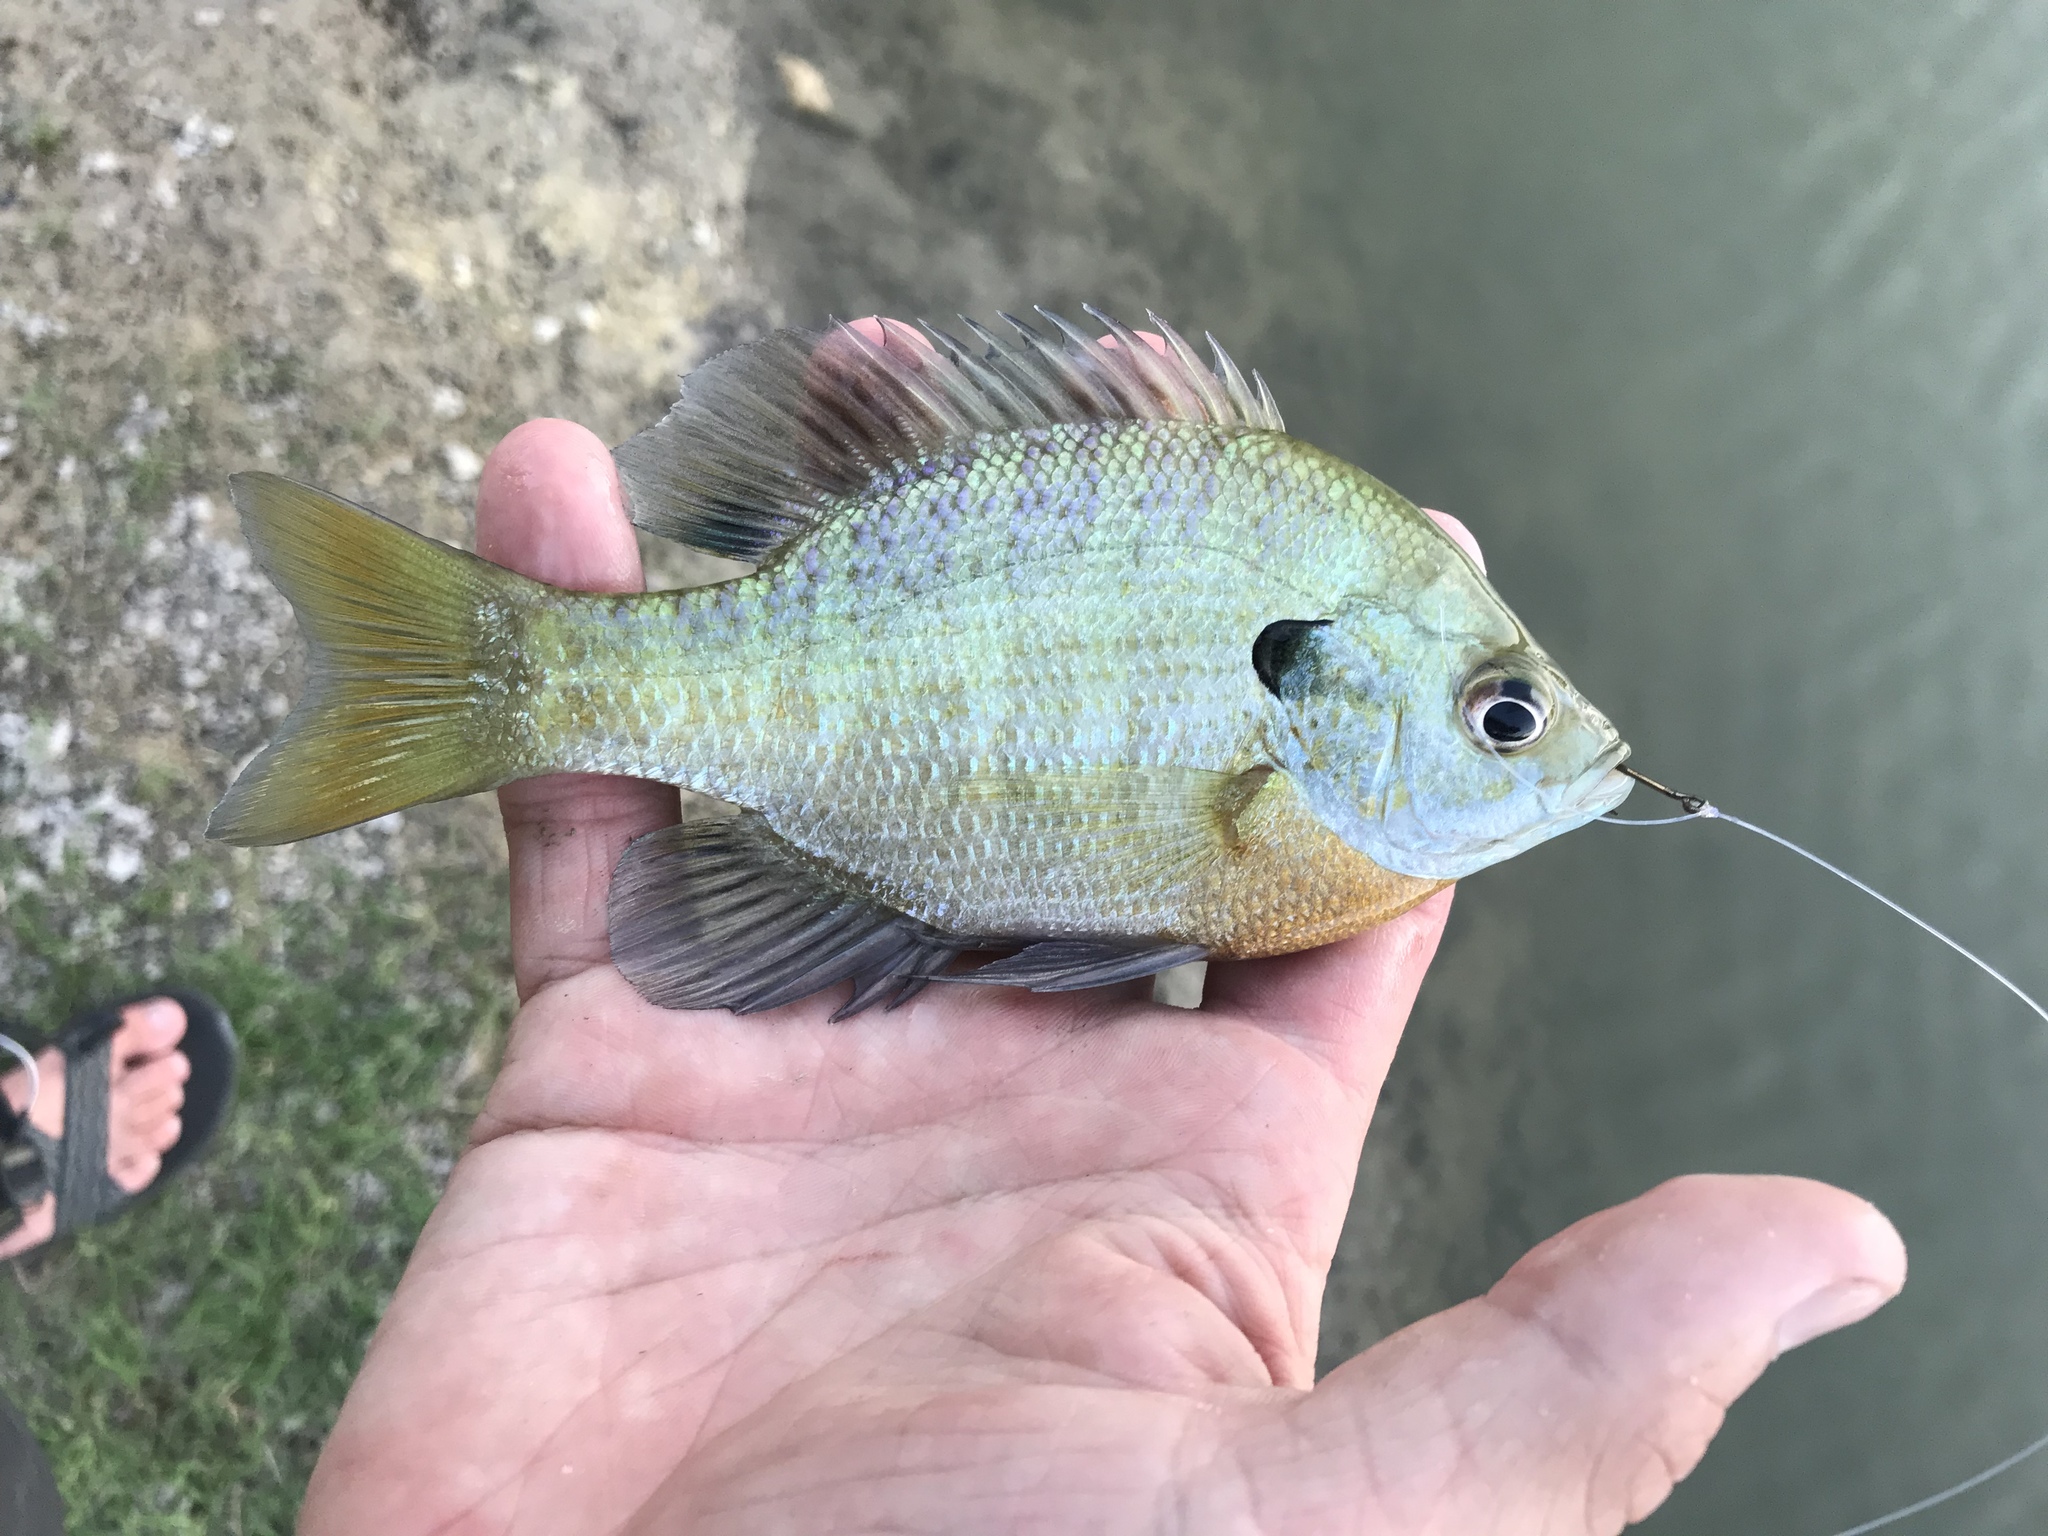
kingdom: Animalia
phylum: Chordata
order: Perciformes
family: Centrarchidae
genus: Lepomis
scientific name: Lepomis macrochirus
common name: Bluegill
